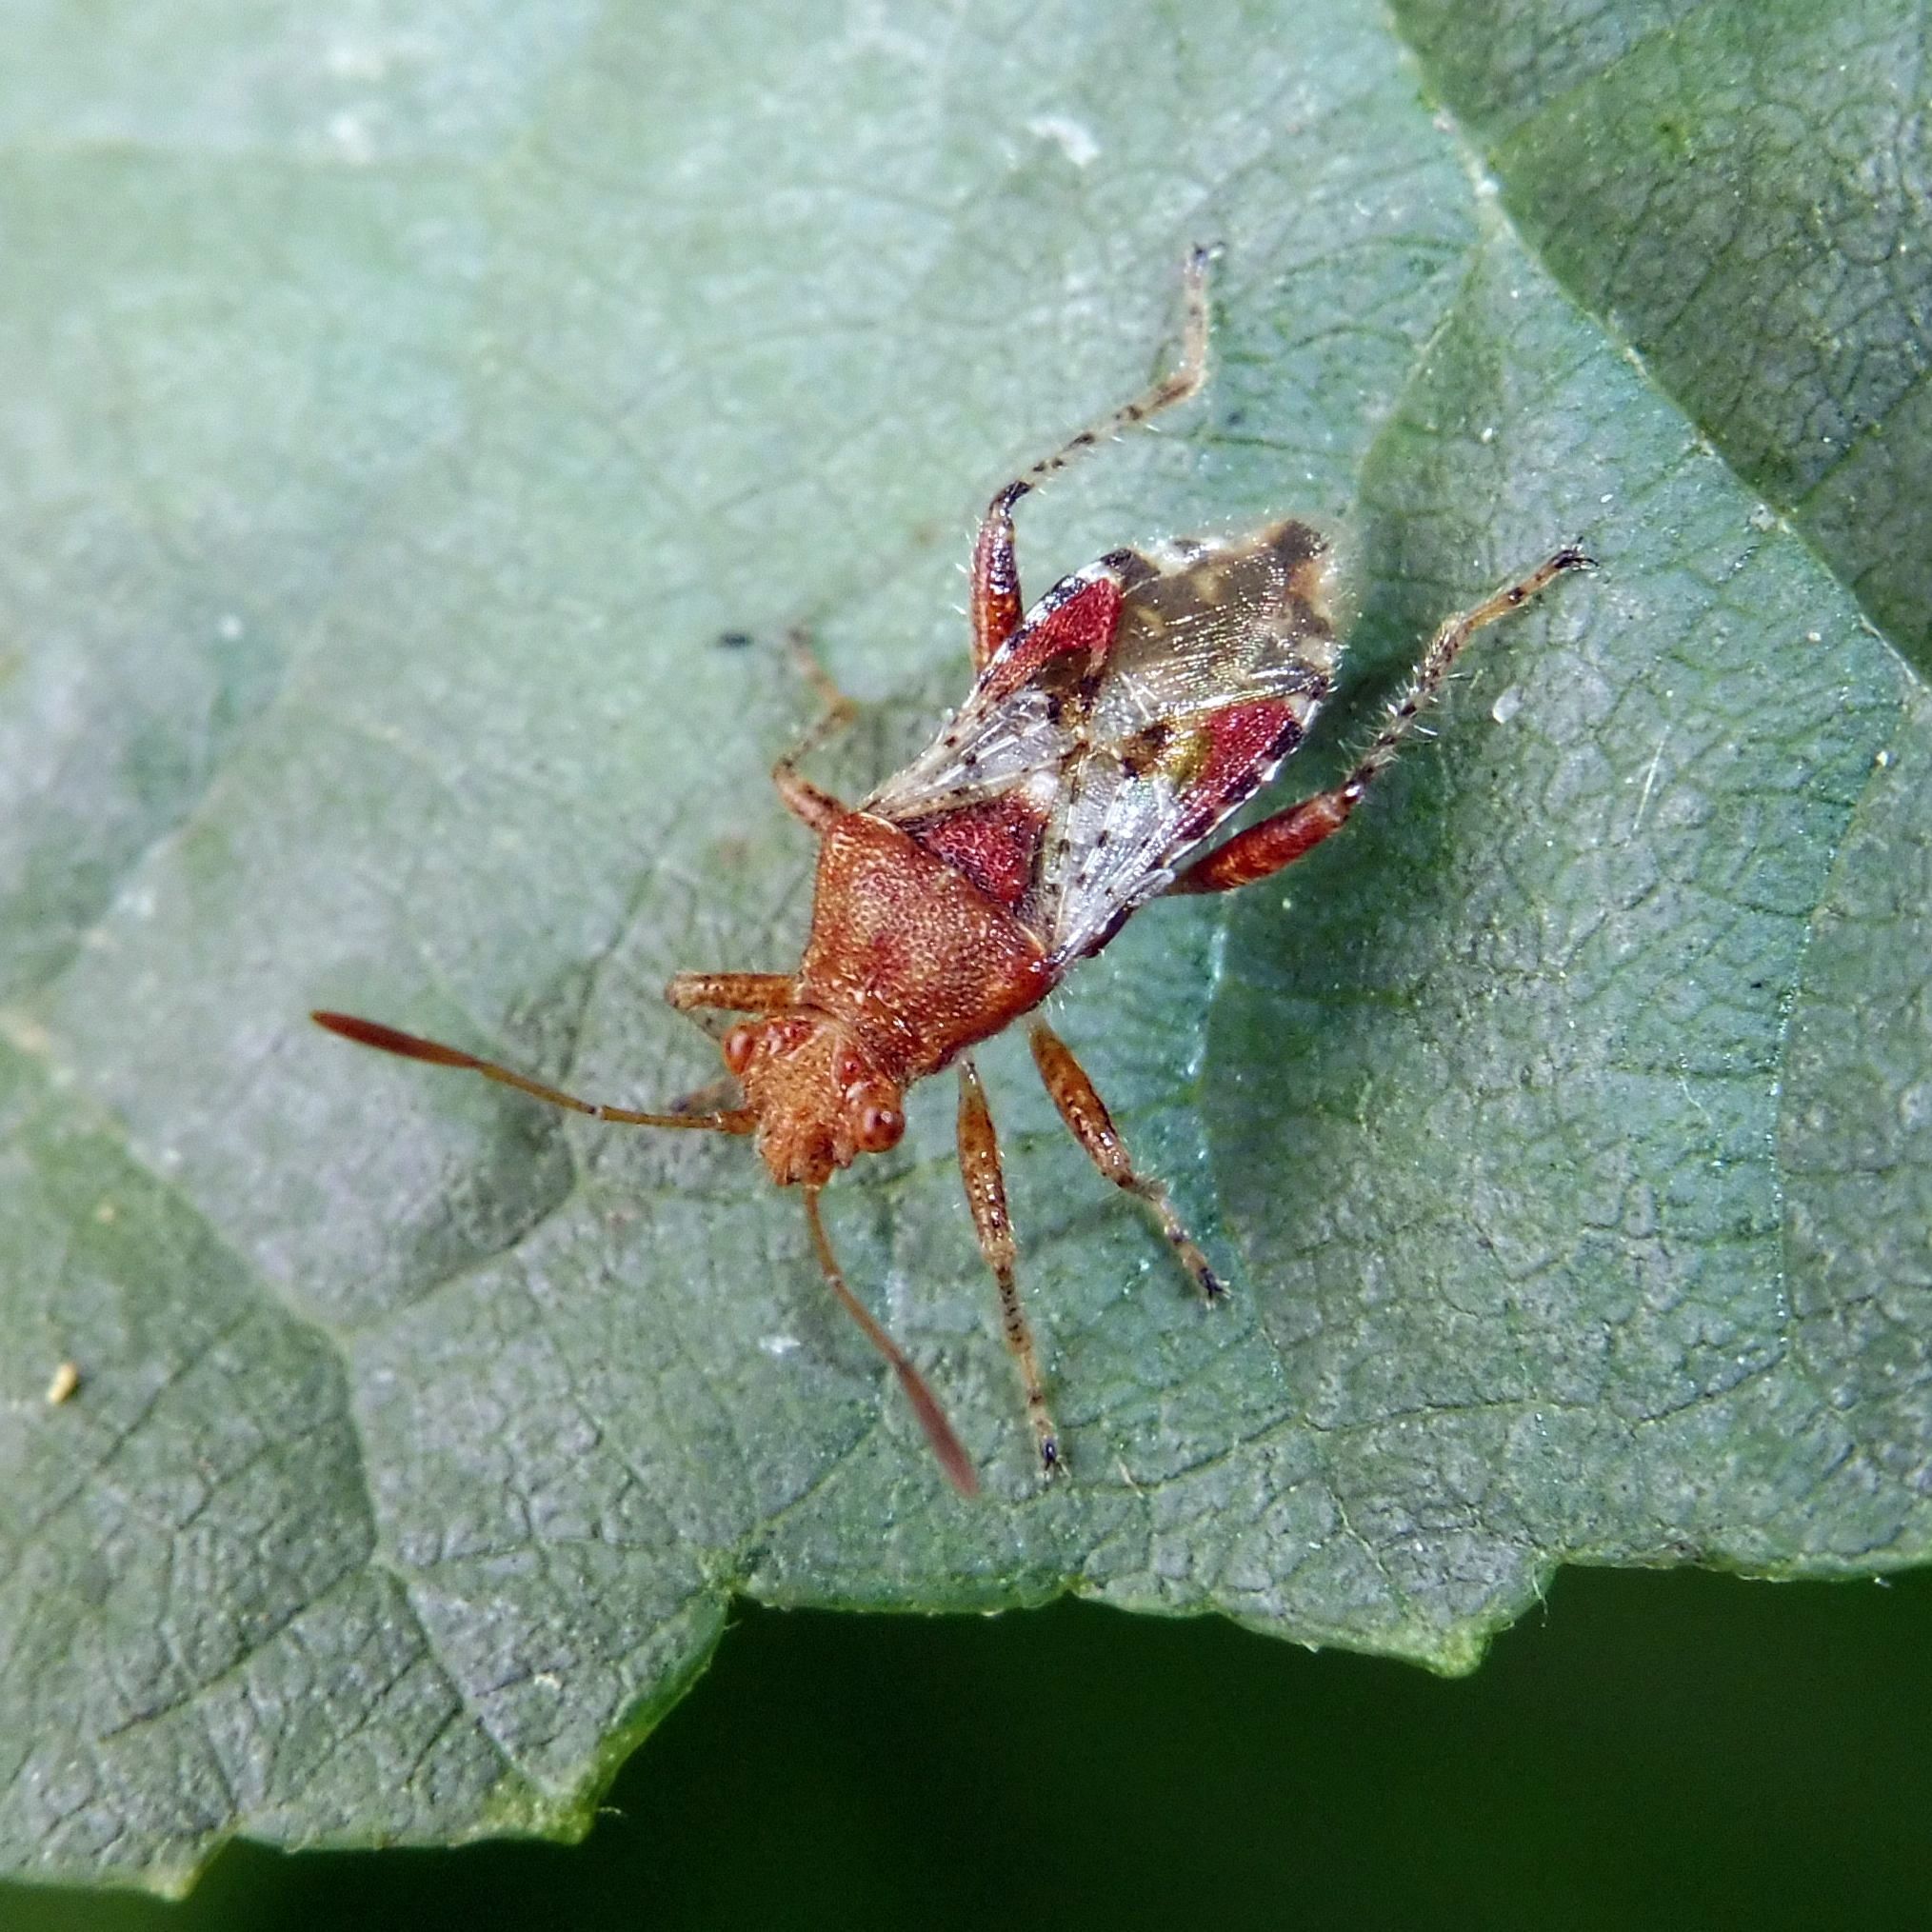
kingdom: Animalia
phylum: Arthropoda
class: Insecta
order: Hemiptera
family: Rhopalidae
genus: Rhopalus
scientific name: Rhopalus subrufus
